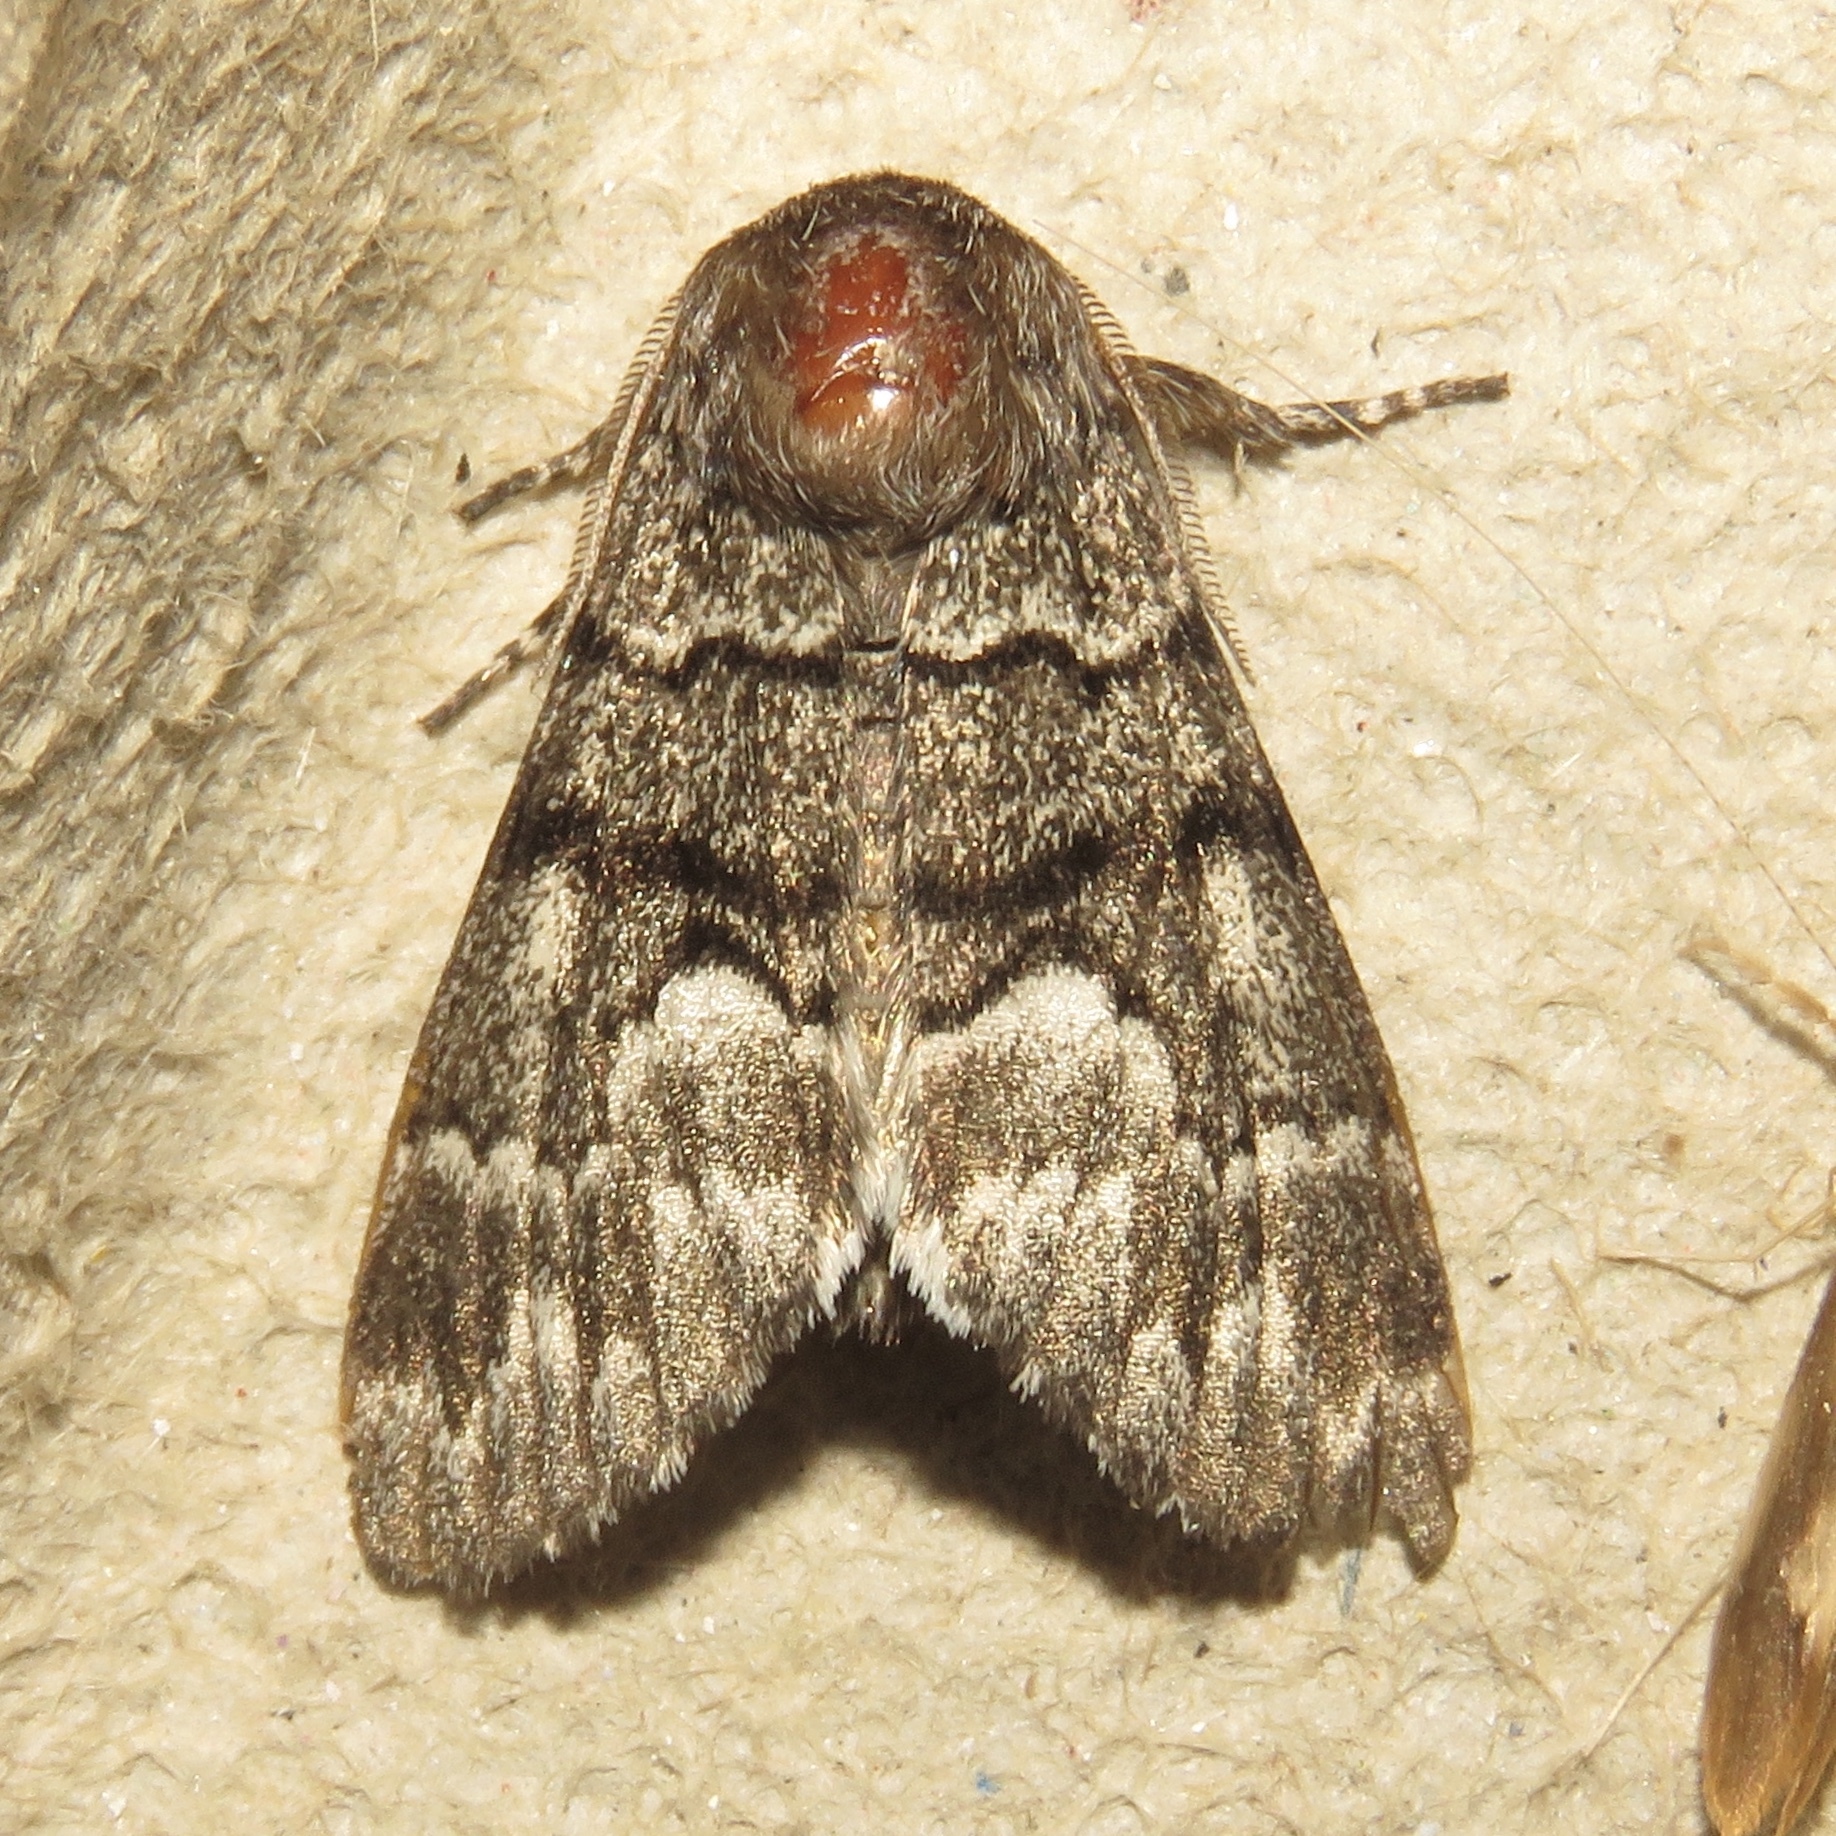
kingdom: Animalia
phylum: Arthropoda
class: Insecta
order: Lepidoptera
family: Noctuidae
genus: Panthea
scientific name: Panthea furcilla
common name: Eastern panthea moth
